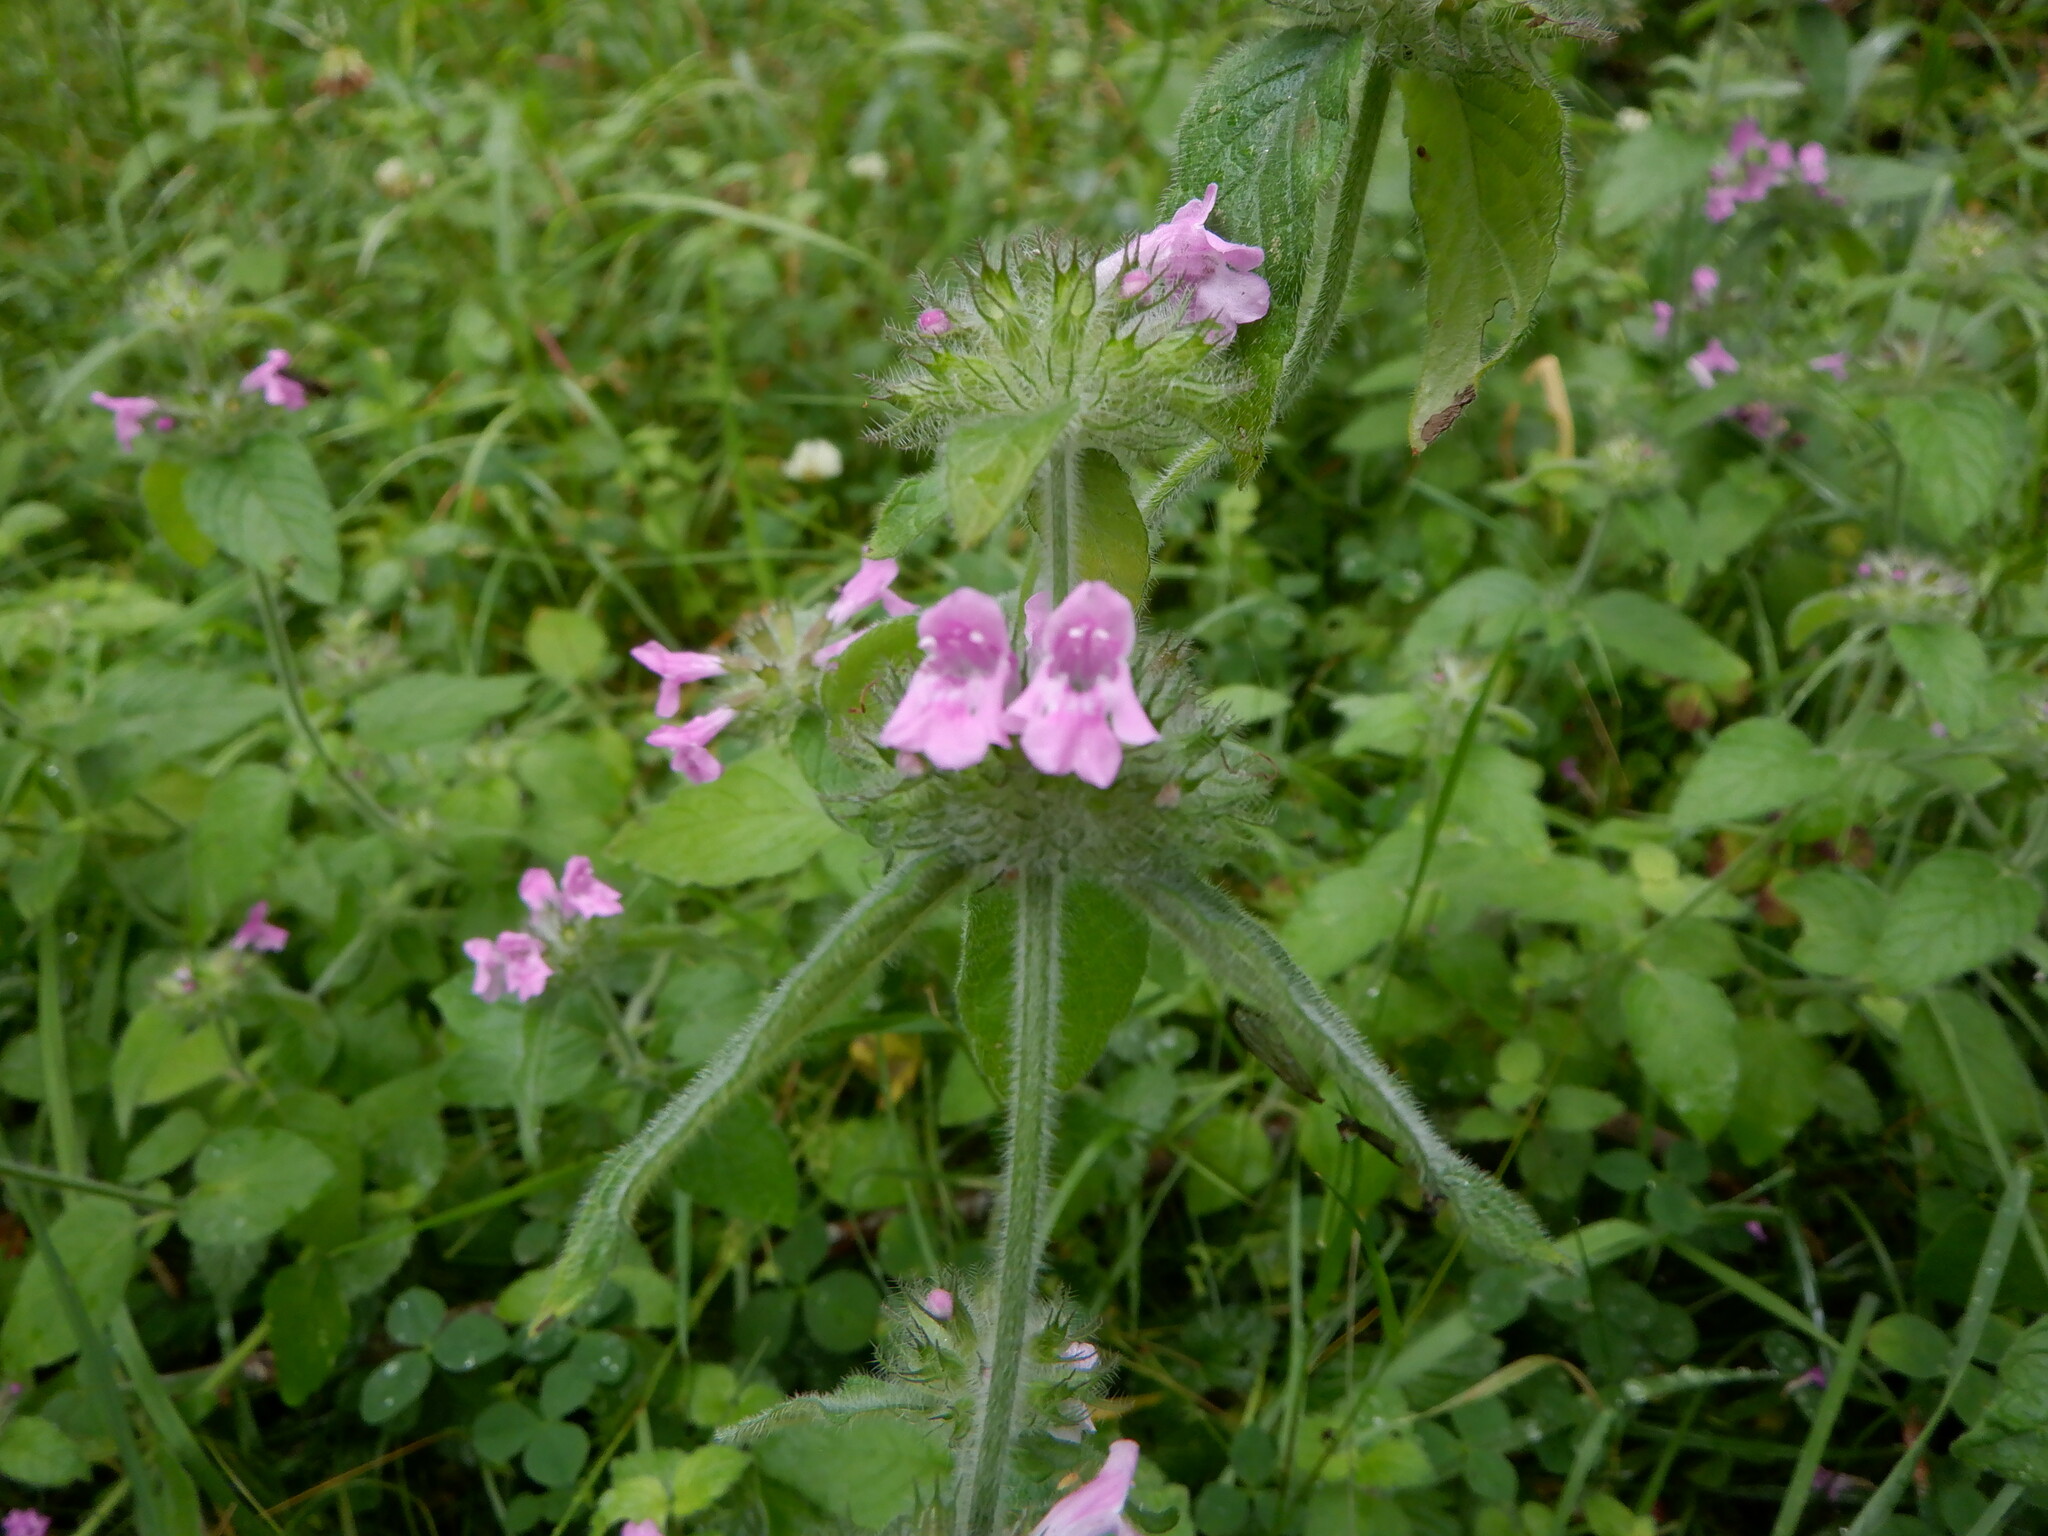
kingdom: Plantae
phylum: Tracheophyta
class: Magnoliopsida
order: Lamiales
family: Lamiaceae
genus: Clinopodium
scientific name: Clinopodium vulgare
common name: Wild basil
